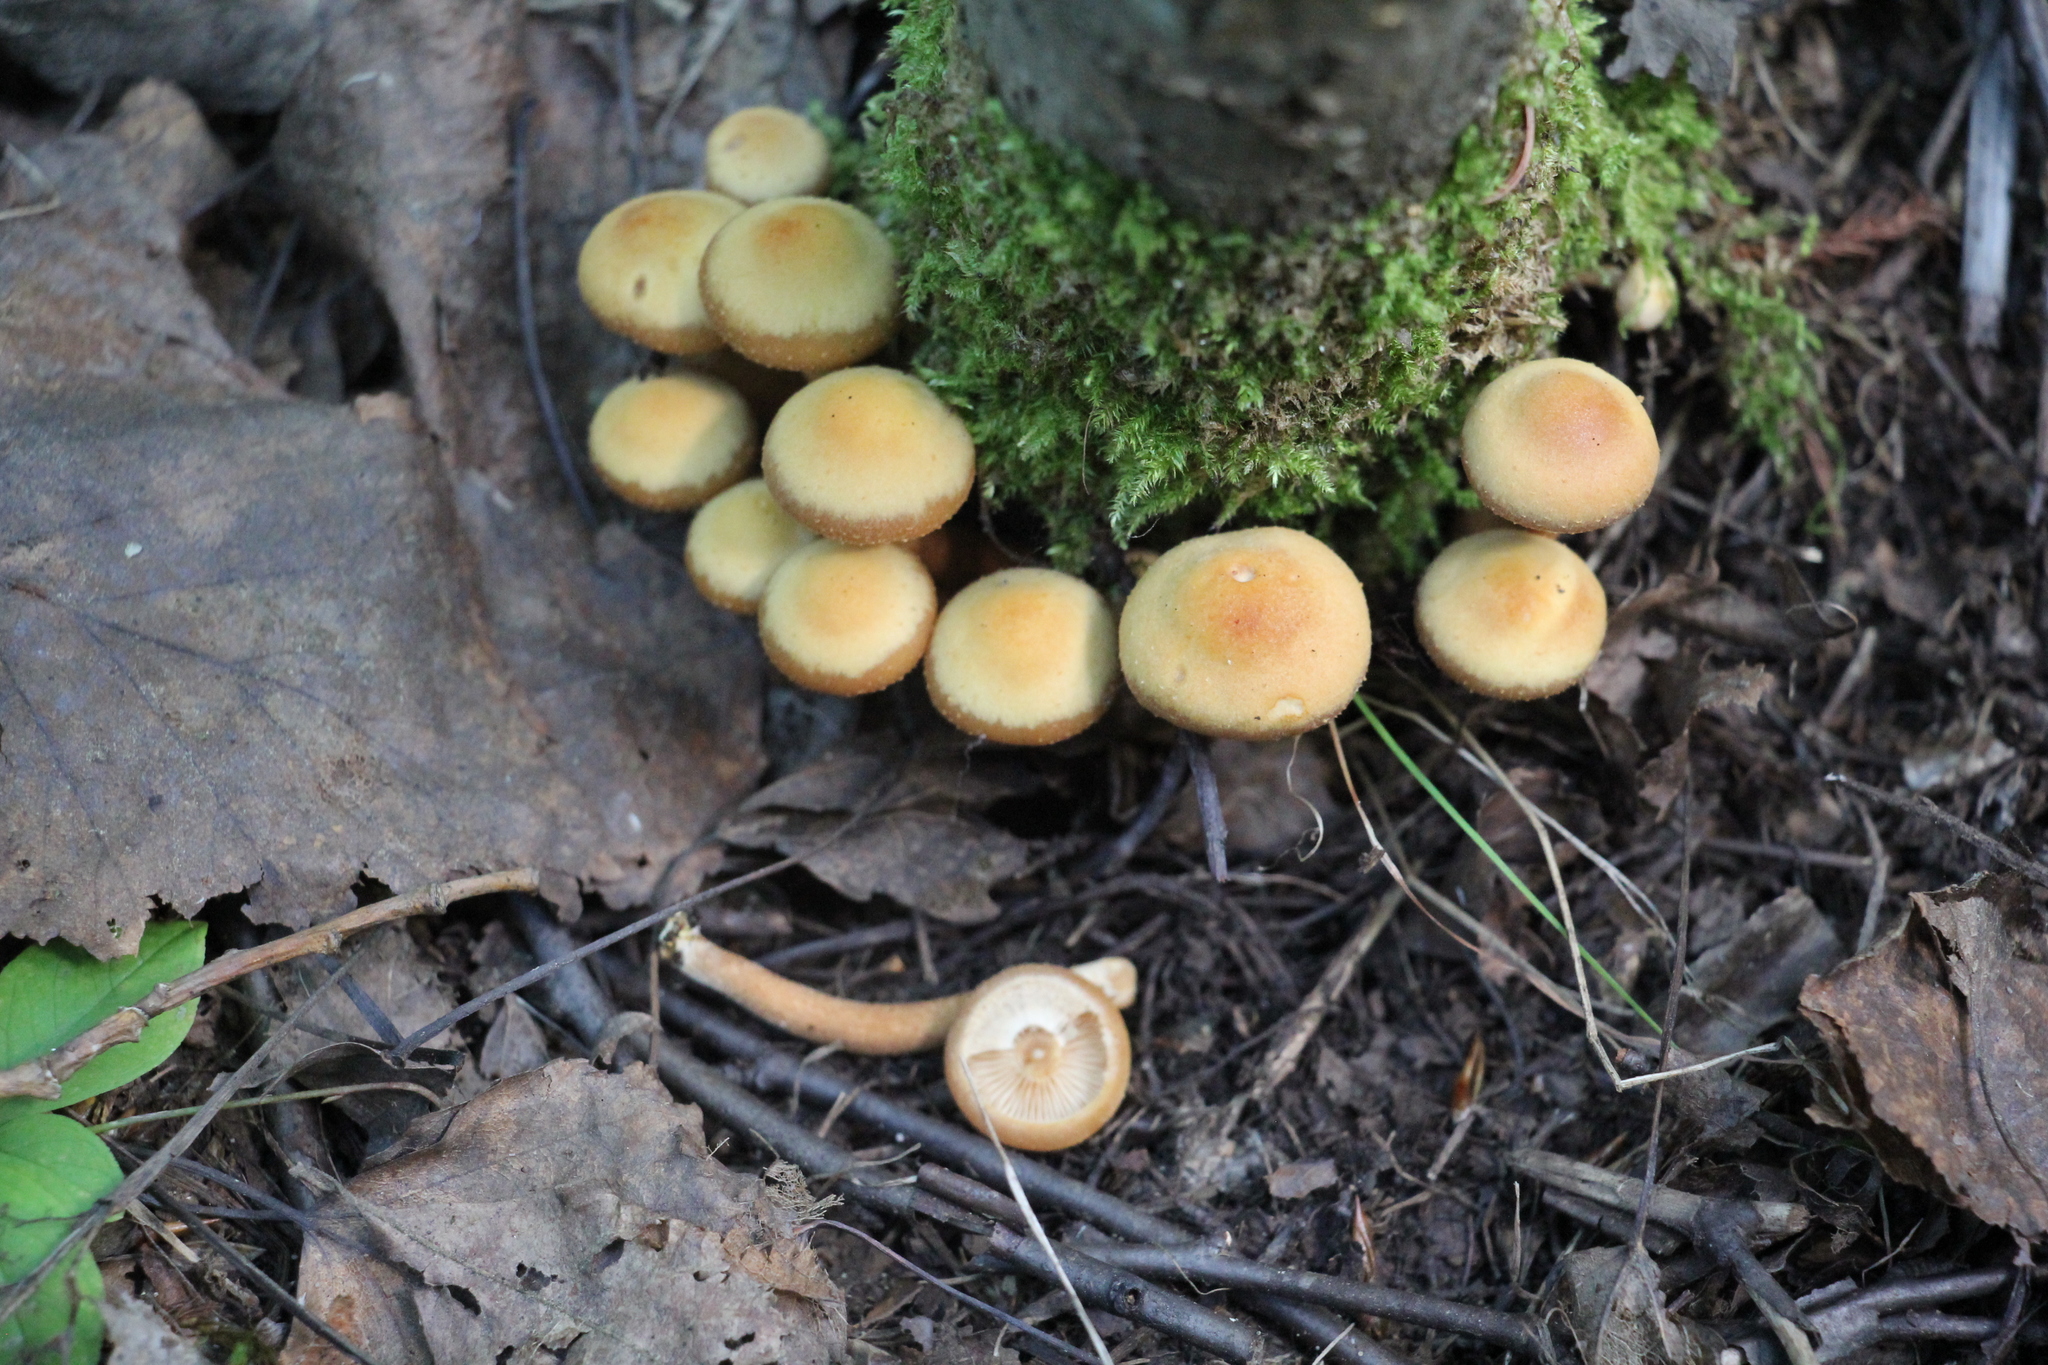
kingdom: Fungi
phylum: Basidiomycota
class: Agaricomycetes
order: Agaricales
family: Strophariaceae
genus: Kuehneromyces
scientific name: Kuehneromyces mutabilis
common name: Sheathed woodtuft
